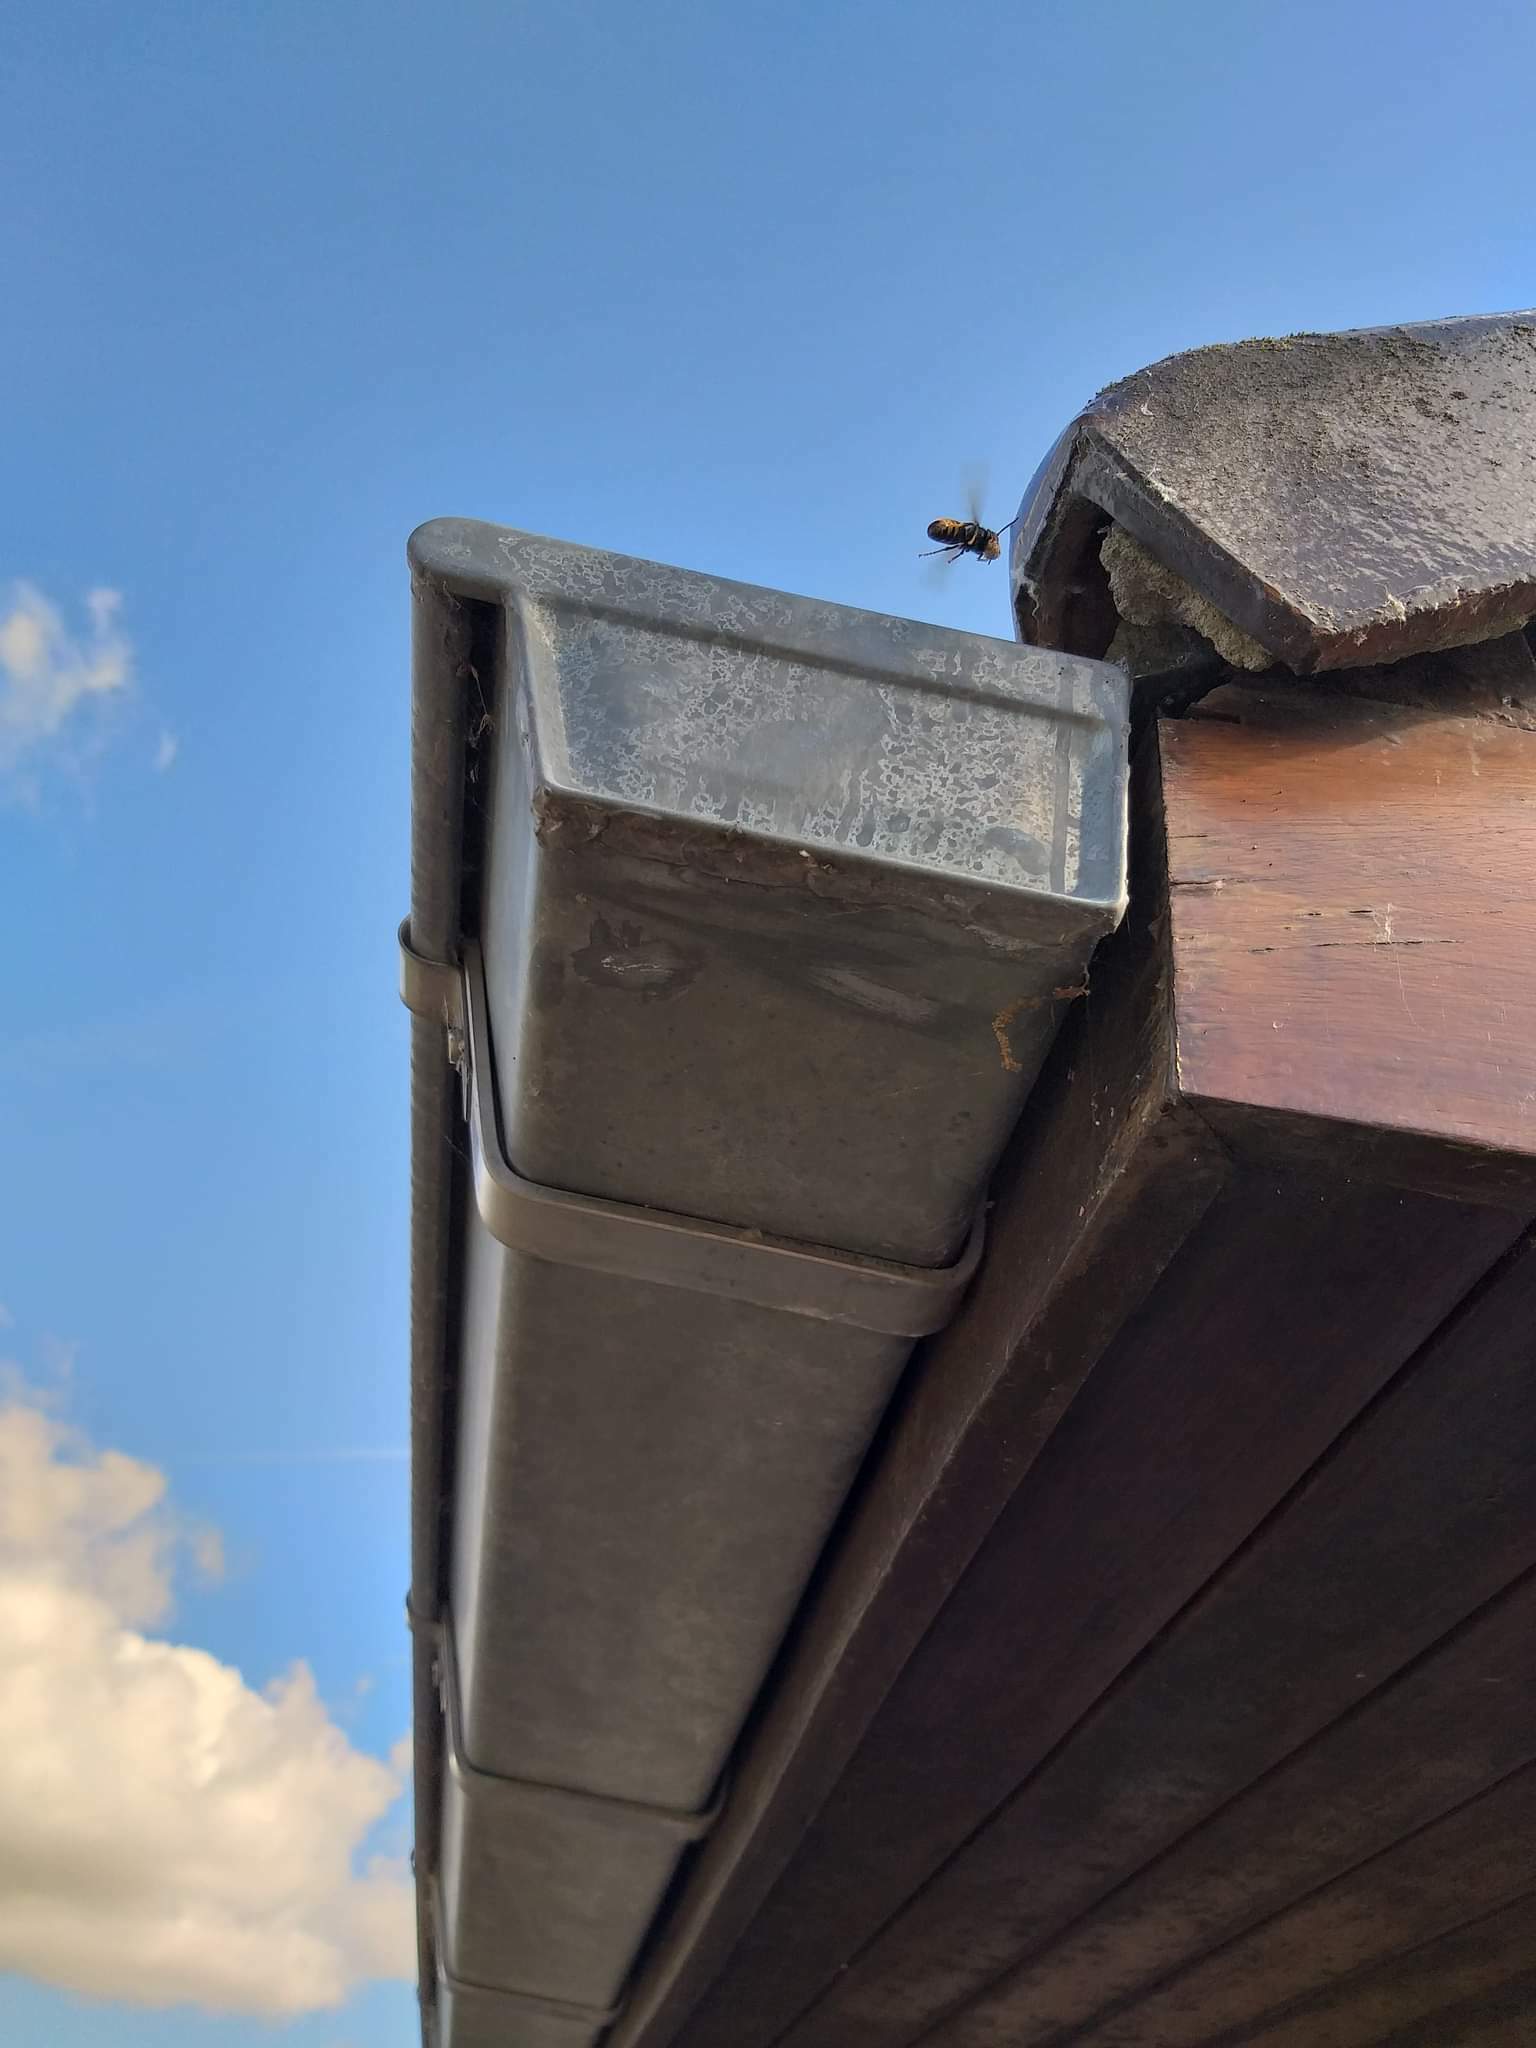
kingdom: Animalia
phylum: Arthropoda
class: Insecta
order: Hymenoptera
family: Vespidae
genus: Vespa
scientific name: Vespa velutina
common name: Asian hornet
